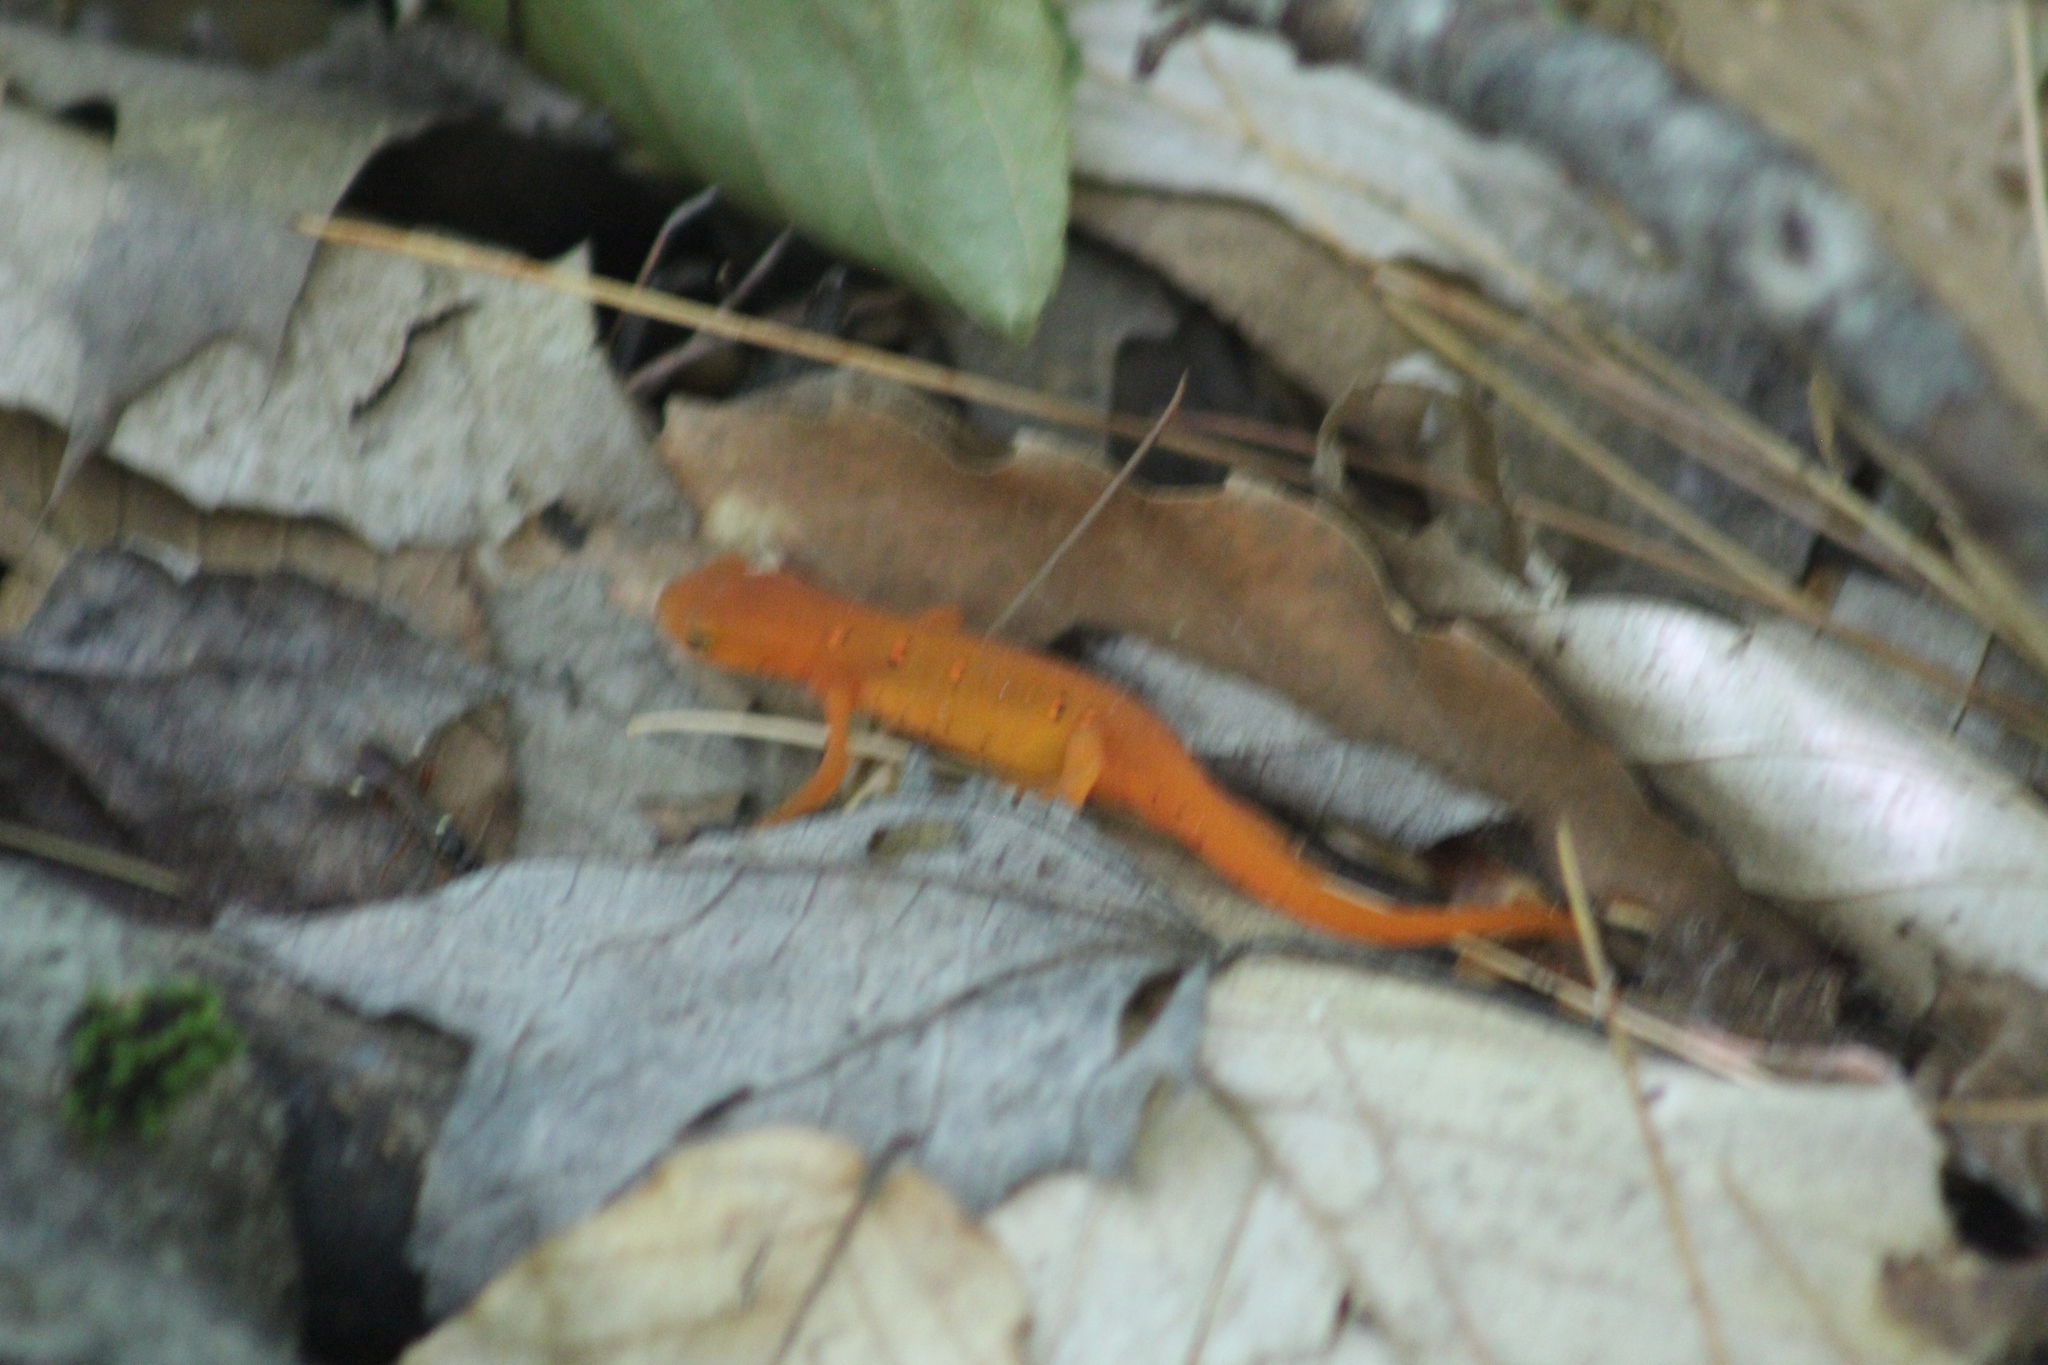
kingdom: Animalia
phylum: Chordata
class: Amphibia
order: Caudata
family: Salamandridae
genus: Notophthalmus
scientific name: Notophthalmus viridescens
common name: Eastern newt
